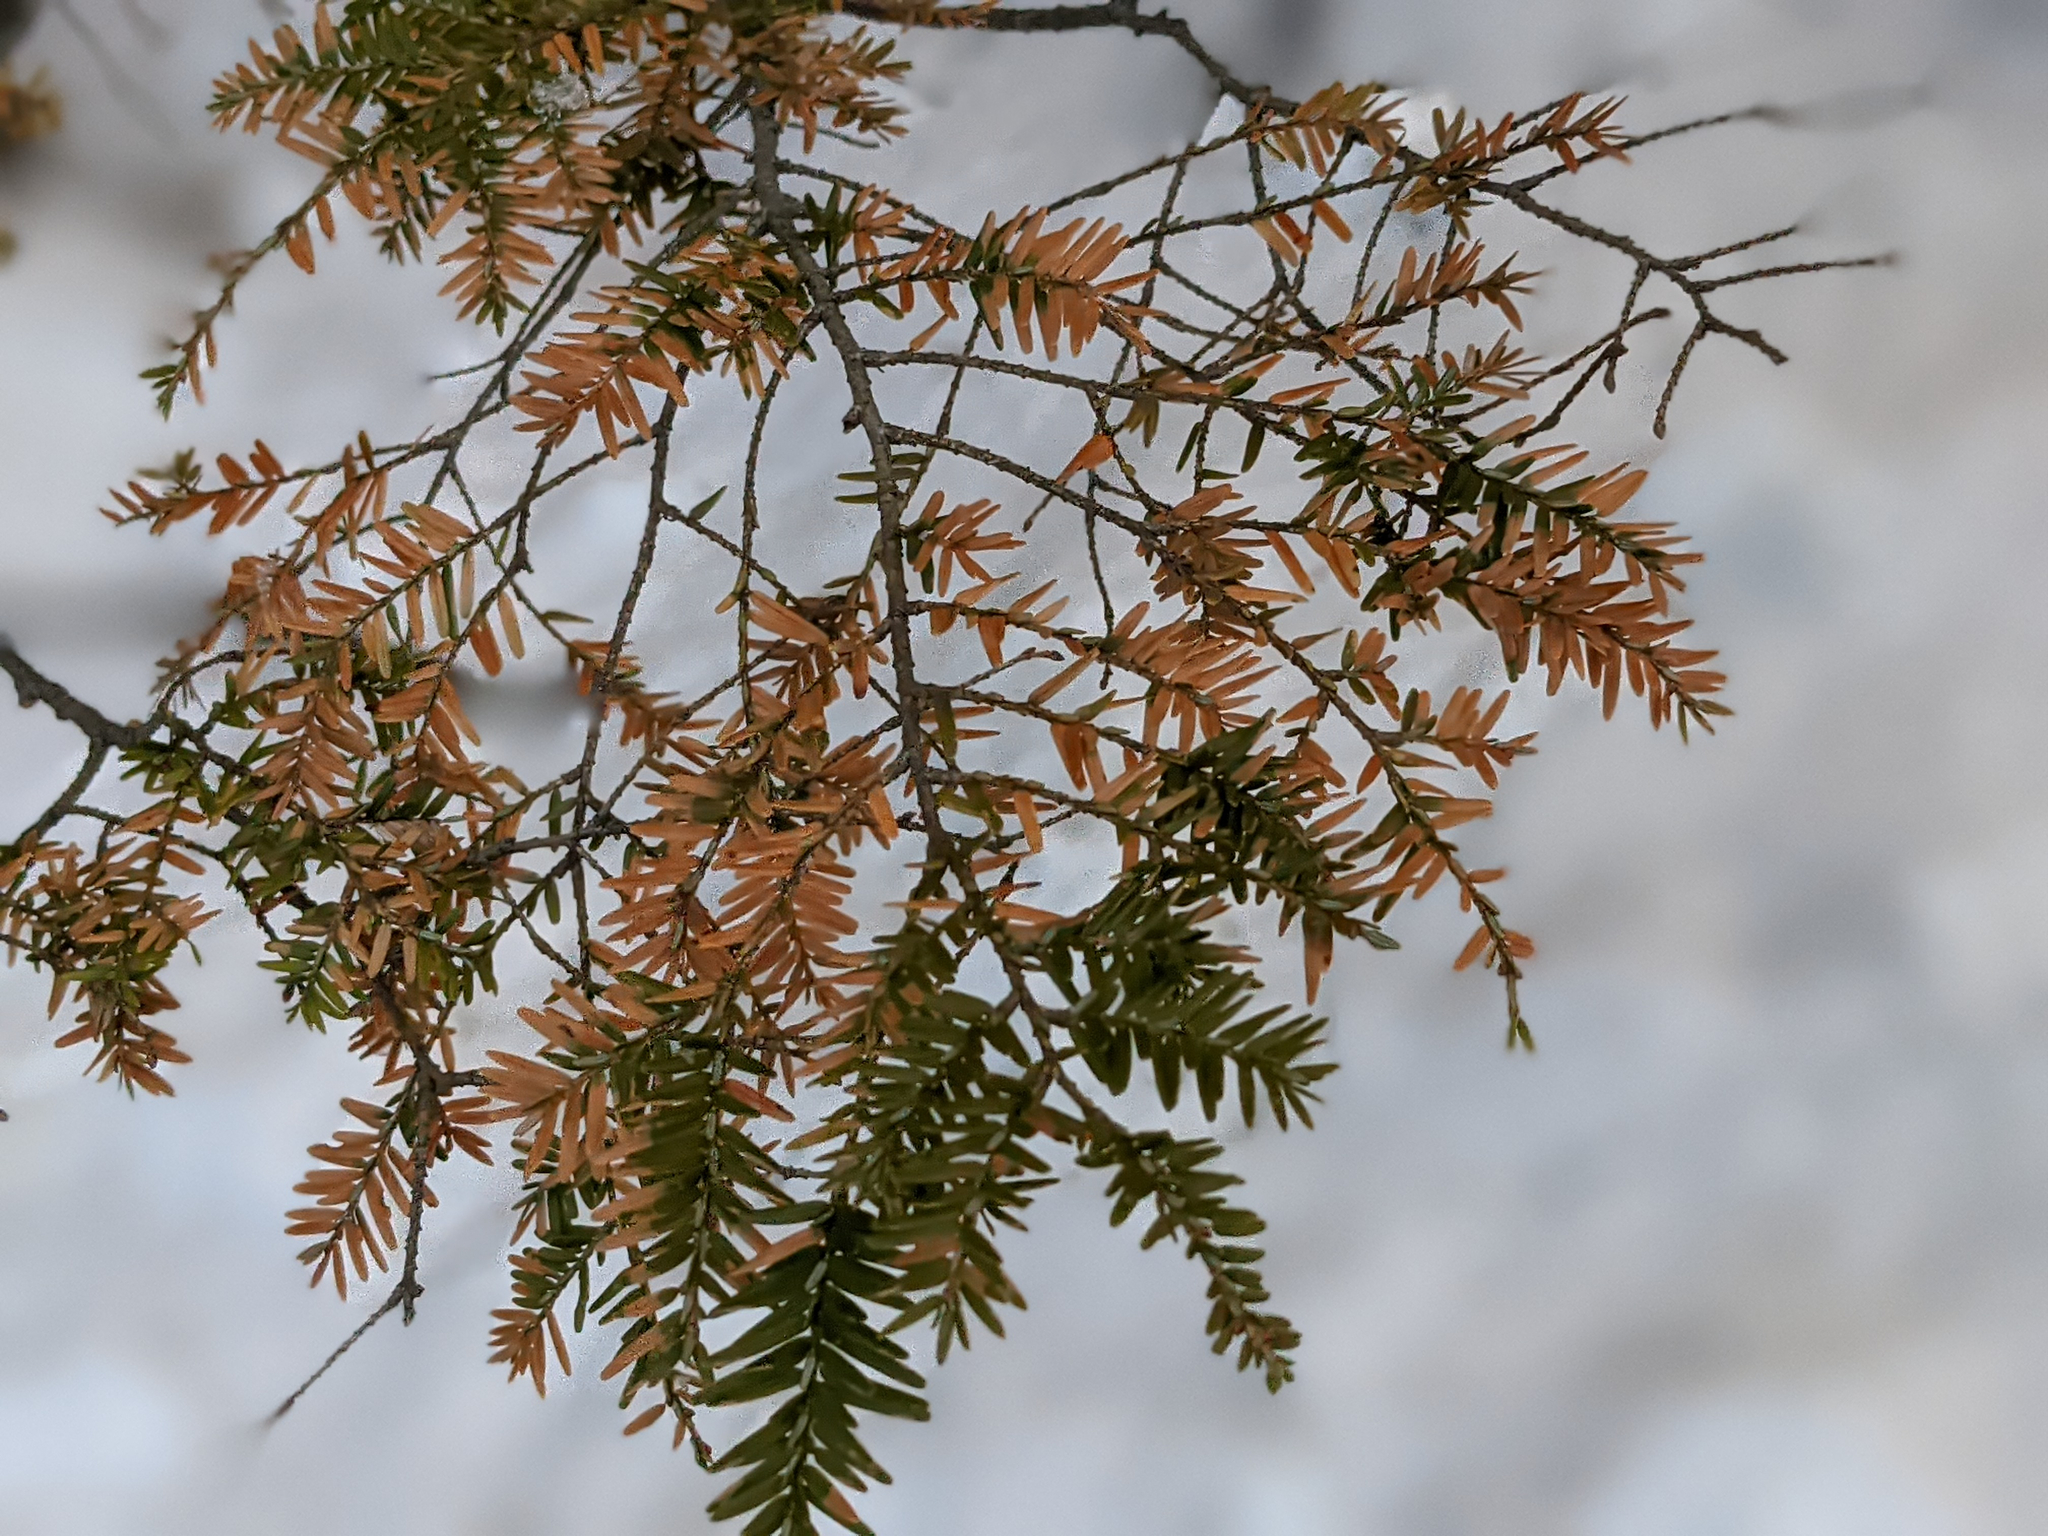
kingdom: Plantae
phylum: Tracheophyta
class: Pinopsida
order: Pinales
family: Pinaceae
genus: Tsuga
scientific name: Tsuga canadensis
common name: Eastern hemlock
